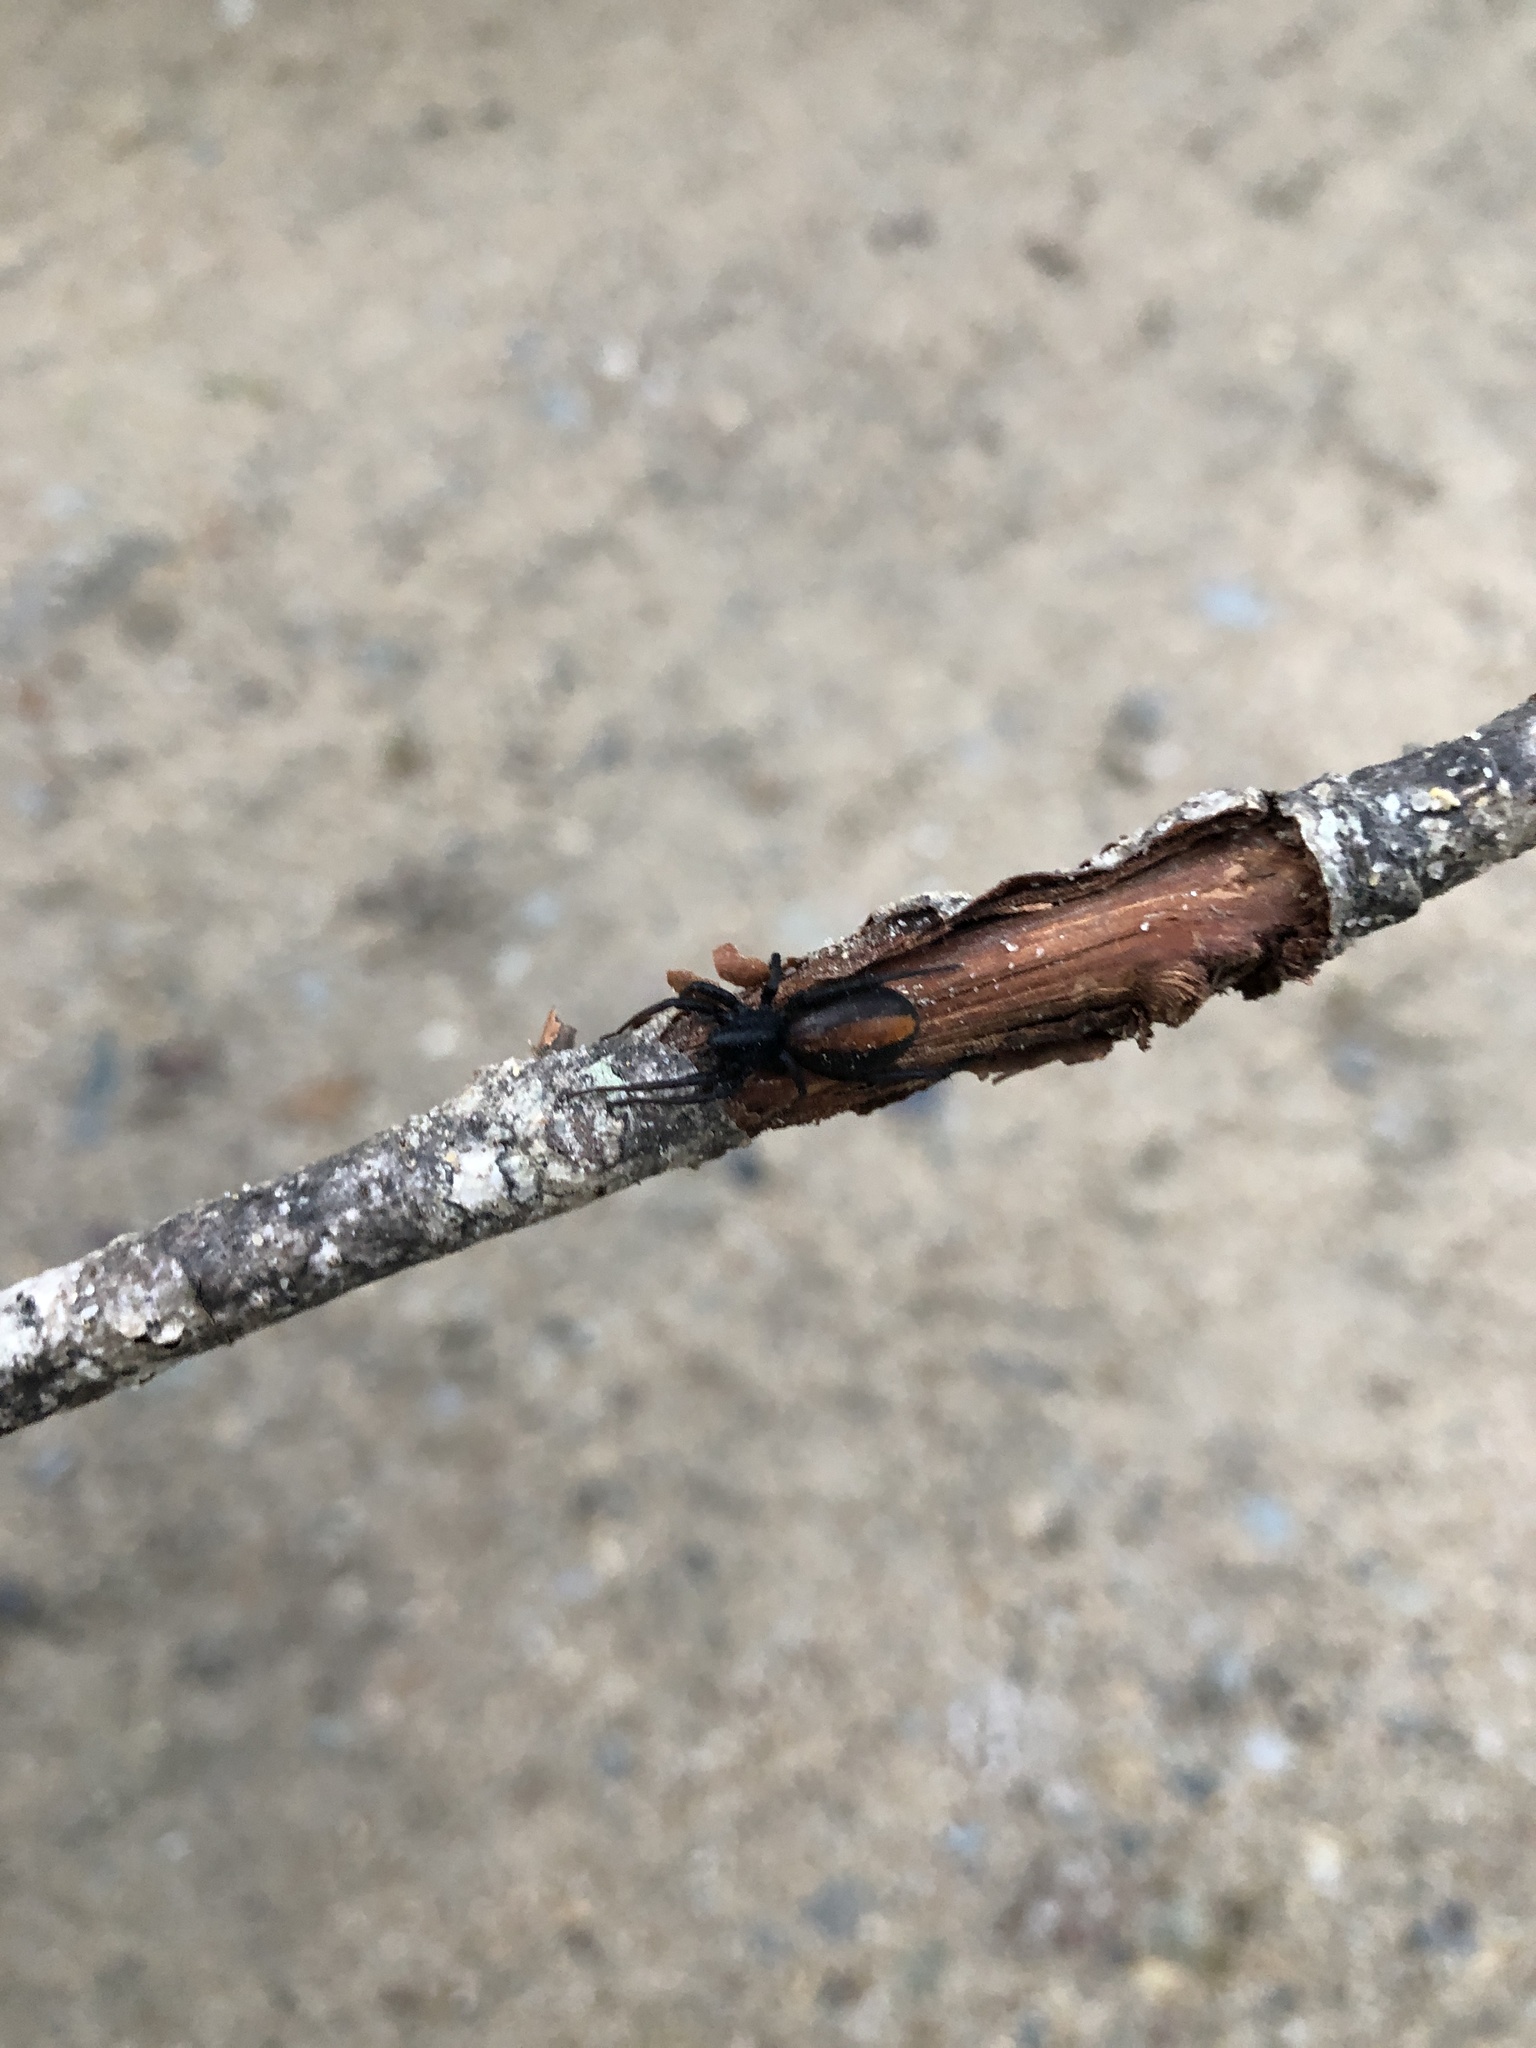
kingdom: Animalia
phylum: Arthropoda
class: Arachnida
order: Araneae
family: Corinnidae
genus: Castianeira
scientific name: Castianeira descripta
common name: Red-spotted ant-mimic sac spider
